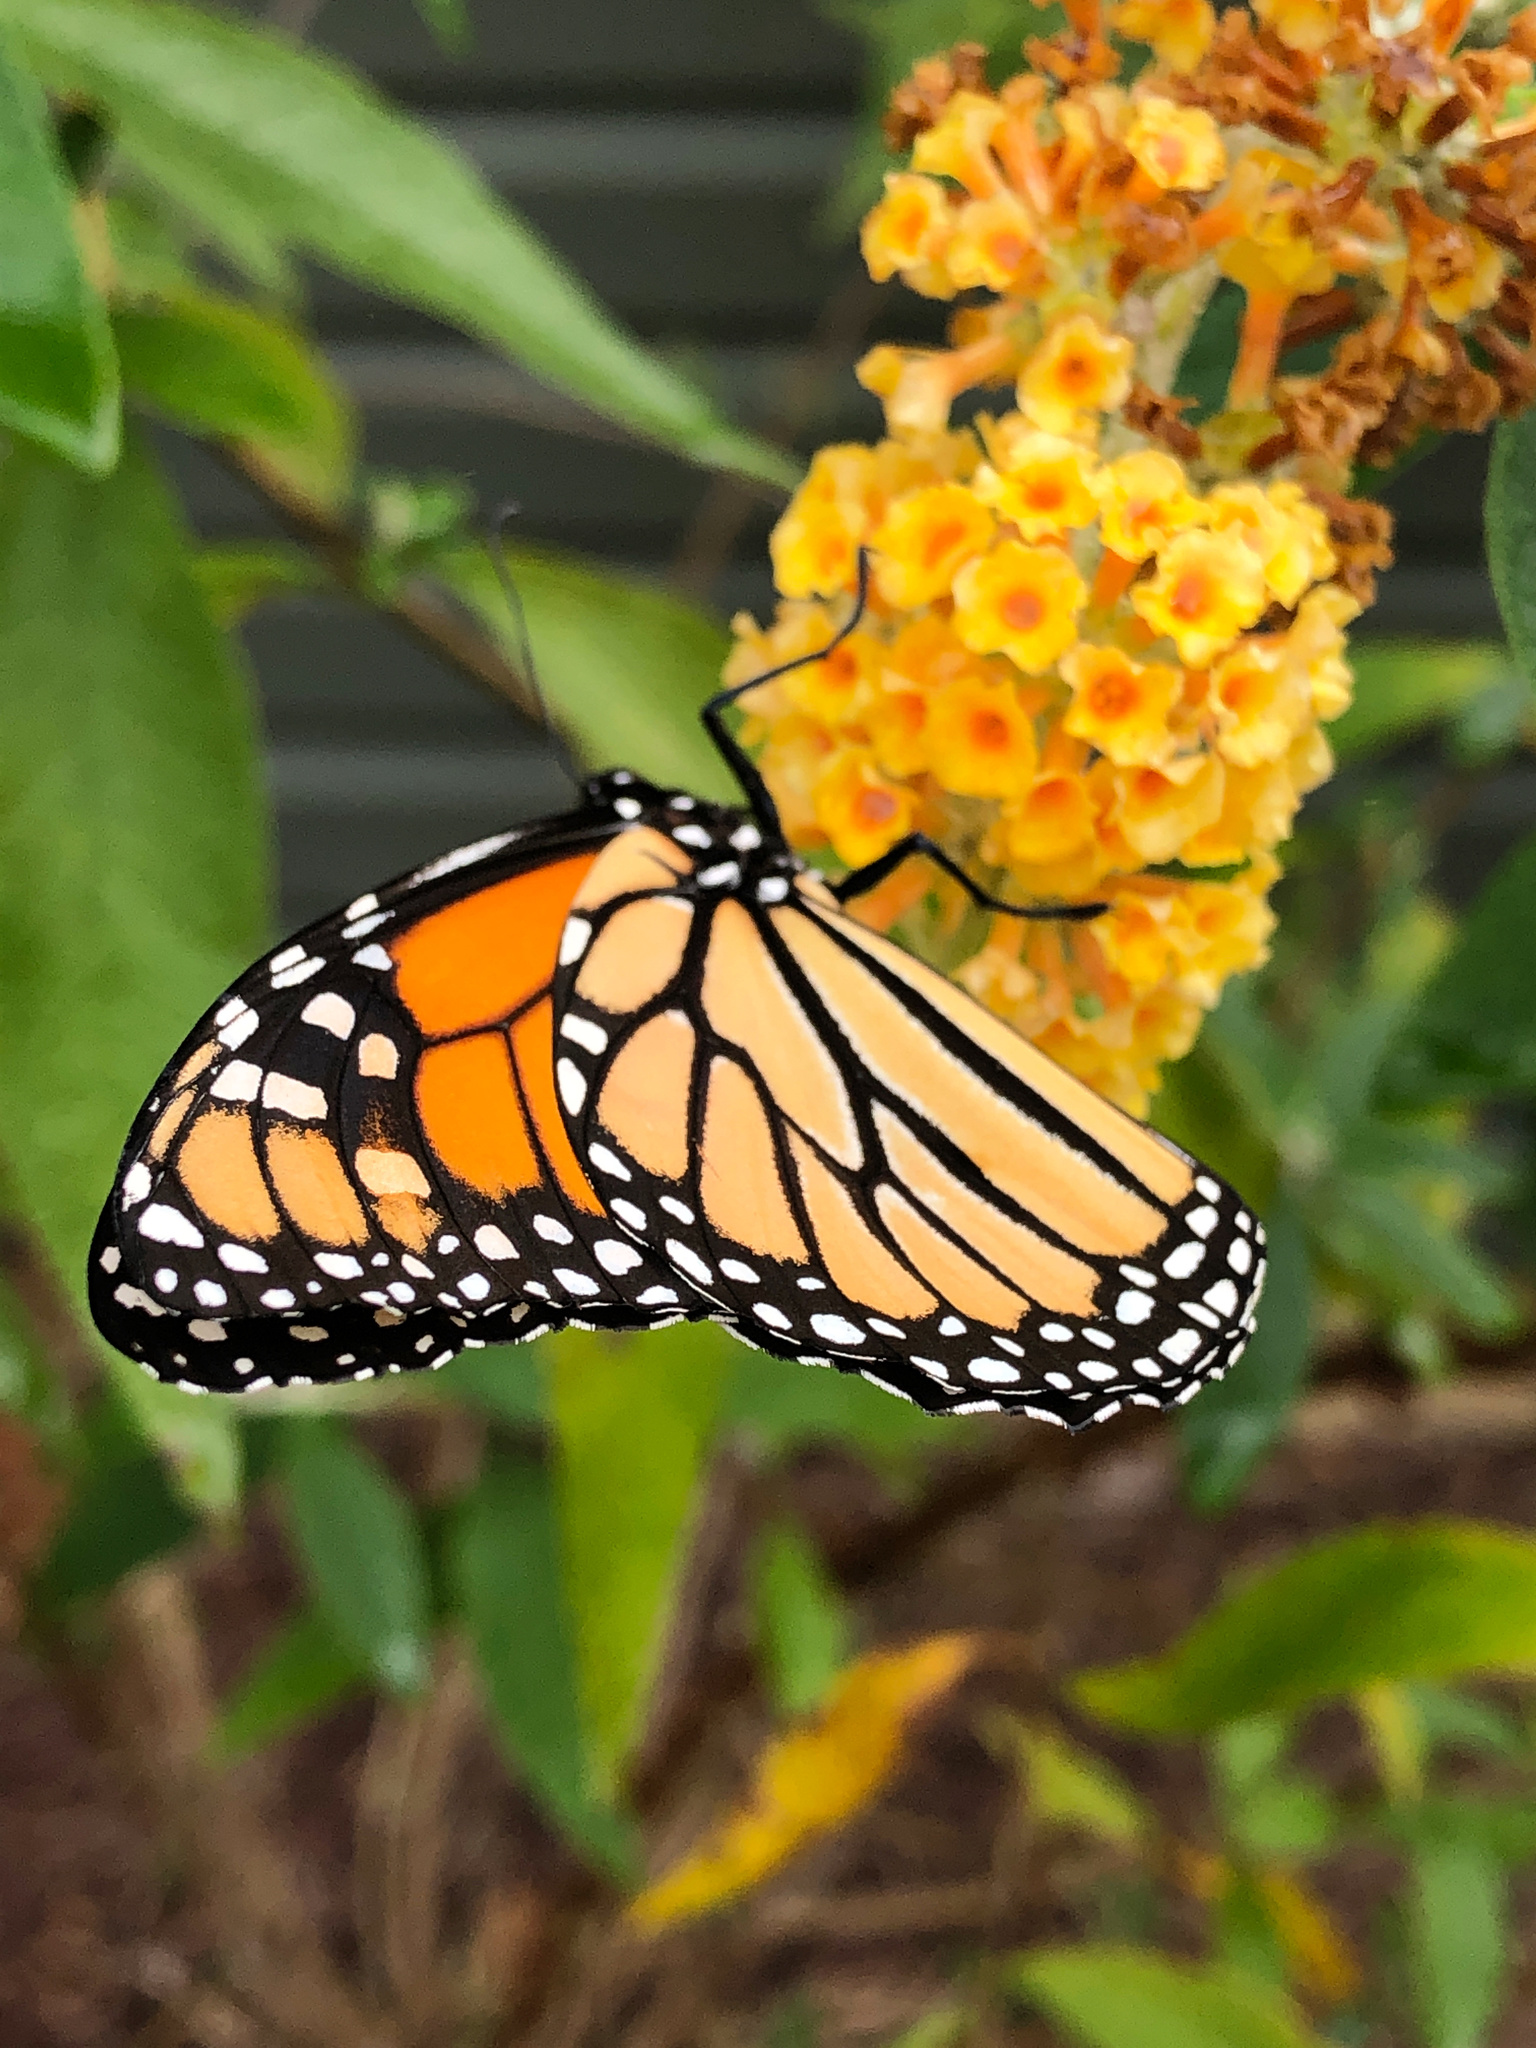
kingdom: Animalia
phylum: Arthropoda
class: Insecta
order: Lepidoptera
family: Nymphalidae
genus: Danaus
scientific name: Danaus plexippus
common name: Monarch
